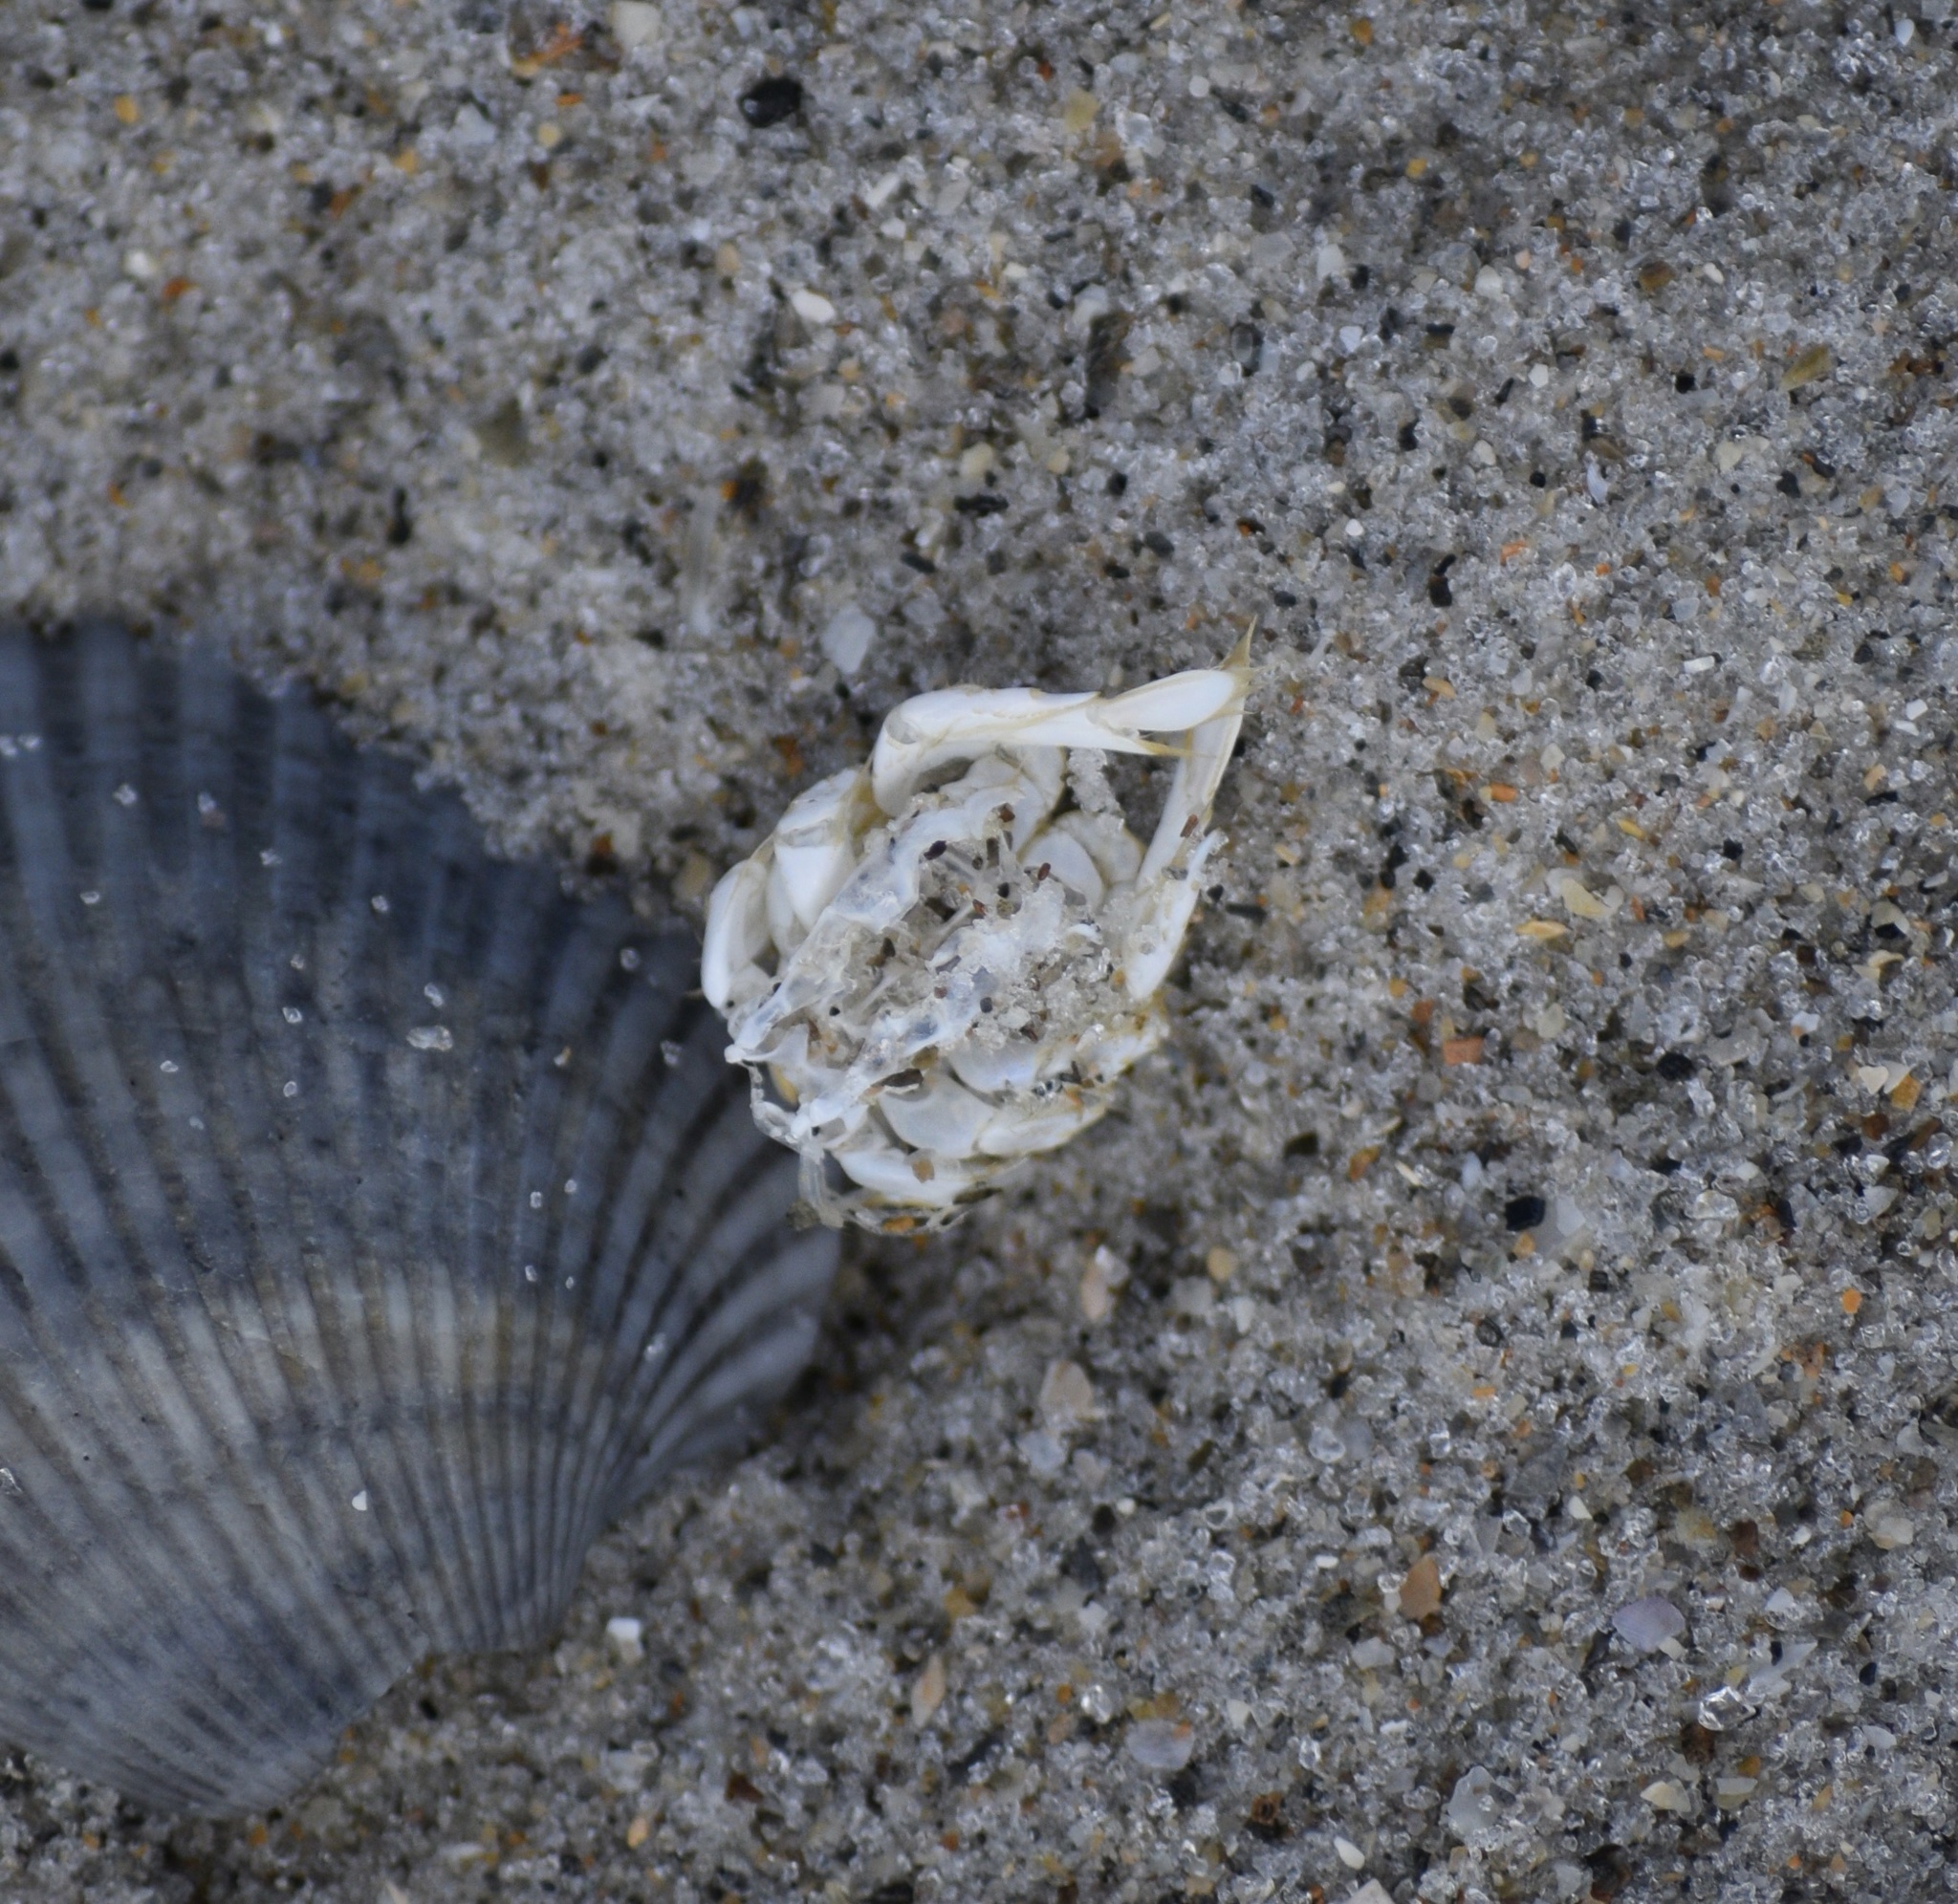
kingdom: Animalia
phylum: Arthropoda
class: Malacostraca
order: Decapoda
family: Hippidae
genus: Emerita
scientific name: Emerita talpoida
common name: Atlantic sand crab
